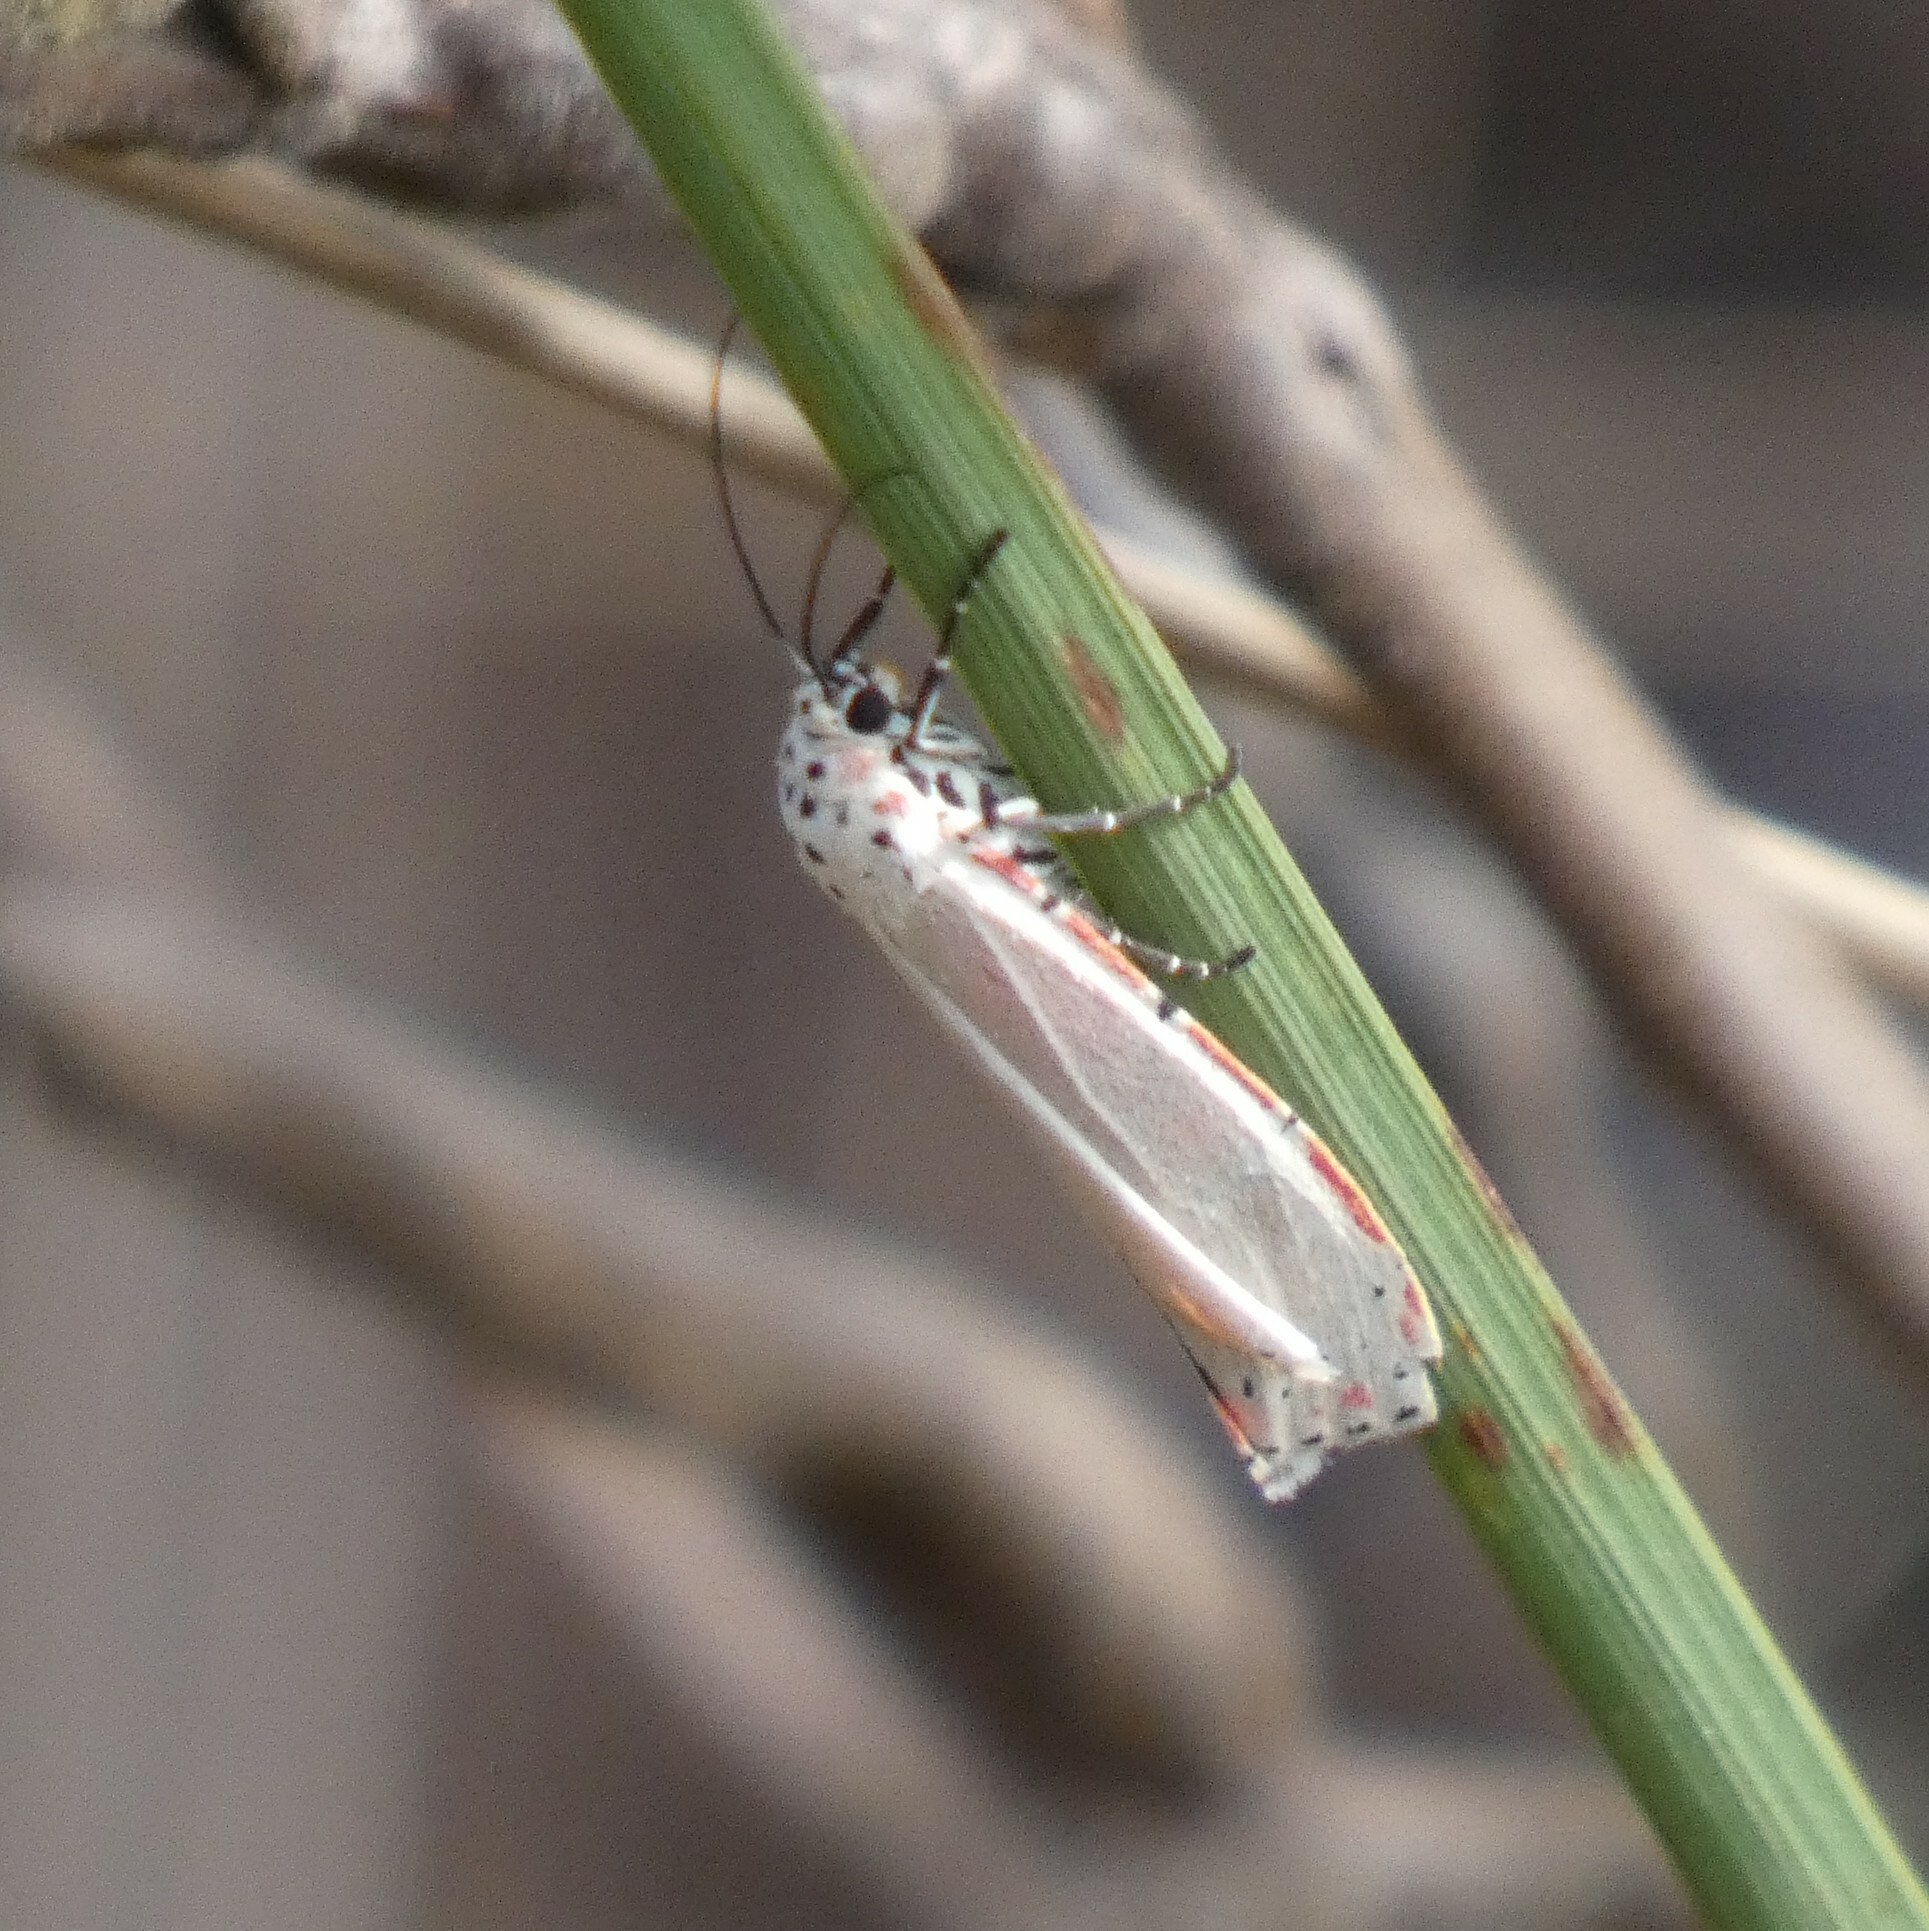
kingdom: Animalia
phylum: Arthropoda
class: Insecta
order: Lepidoptera
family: Erebidae
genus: Utetheisa
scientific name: Utetheisa ornatrix
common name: Beautiful utetheisa
